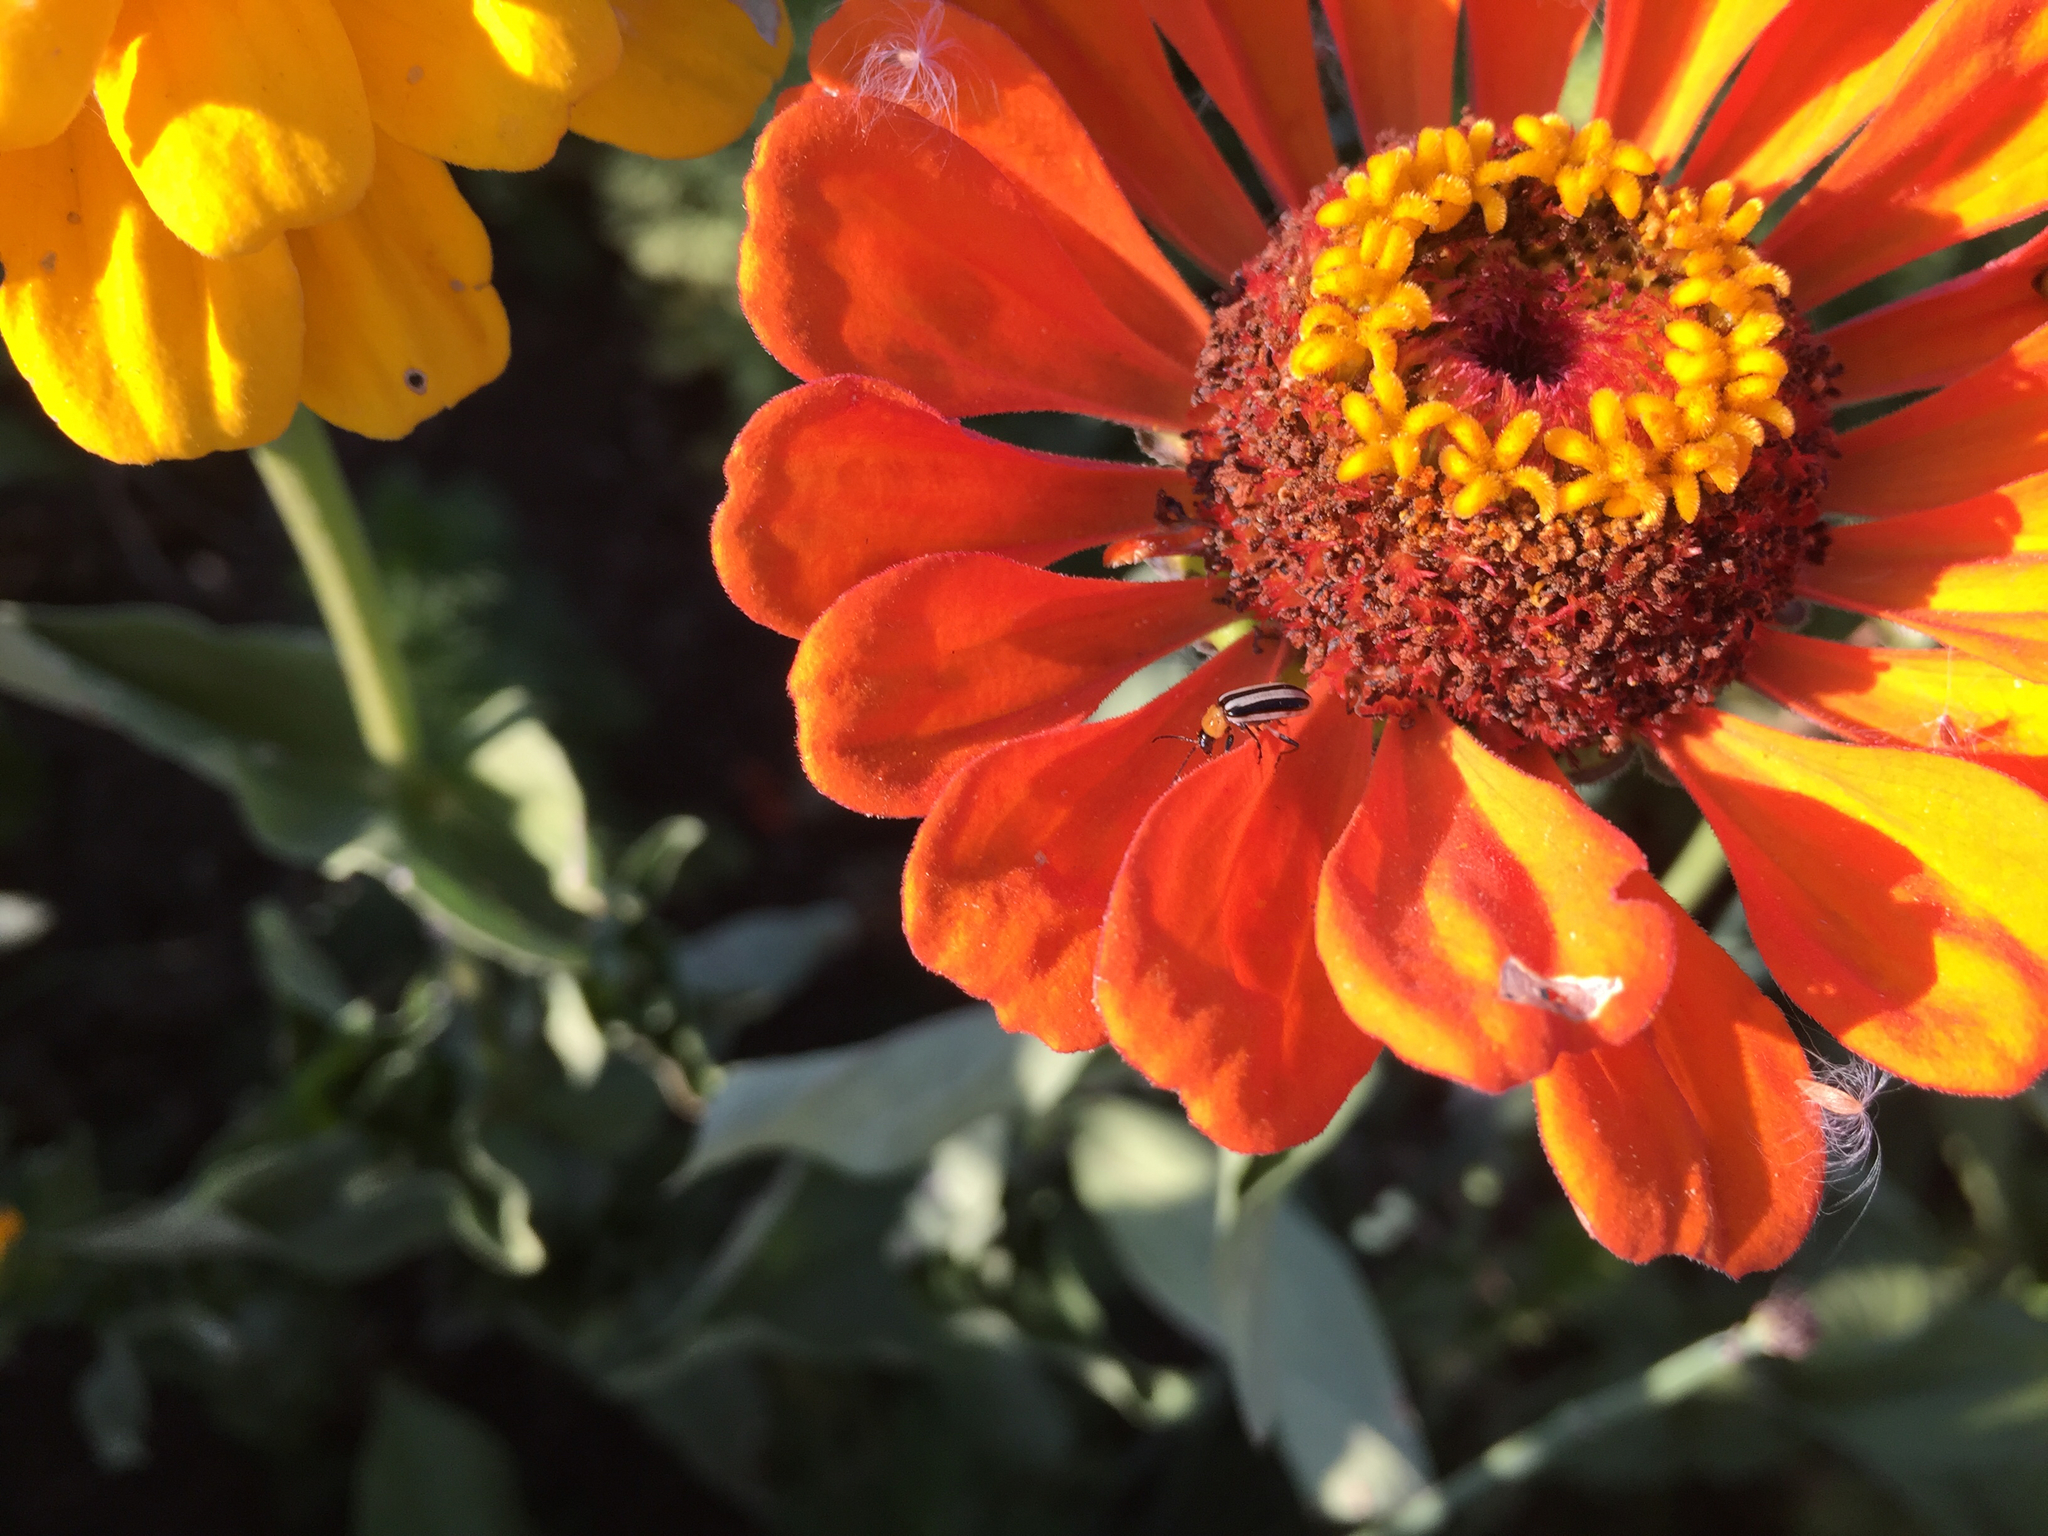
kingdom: Animalia
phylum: Arthropoda
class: Insecta
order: Coleoptera
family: Chrysomelidae
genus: Acalymma
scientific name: Acalymma trivittatum
